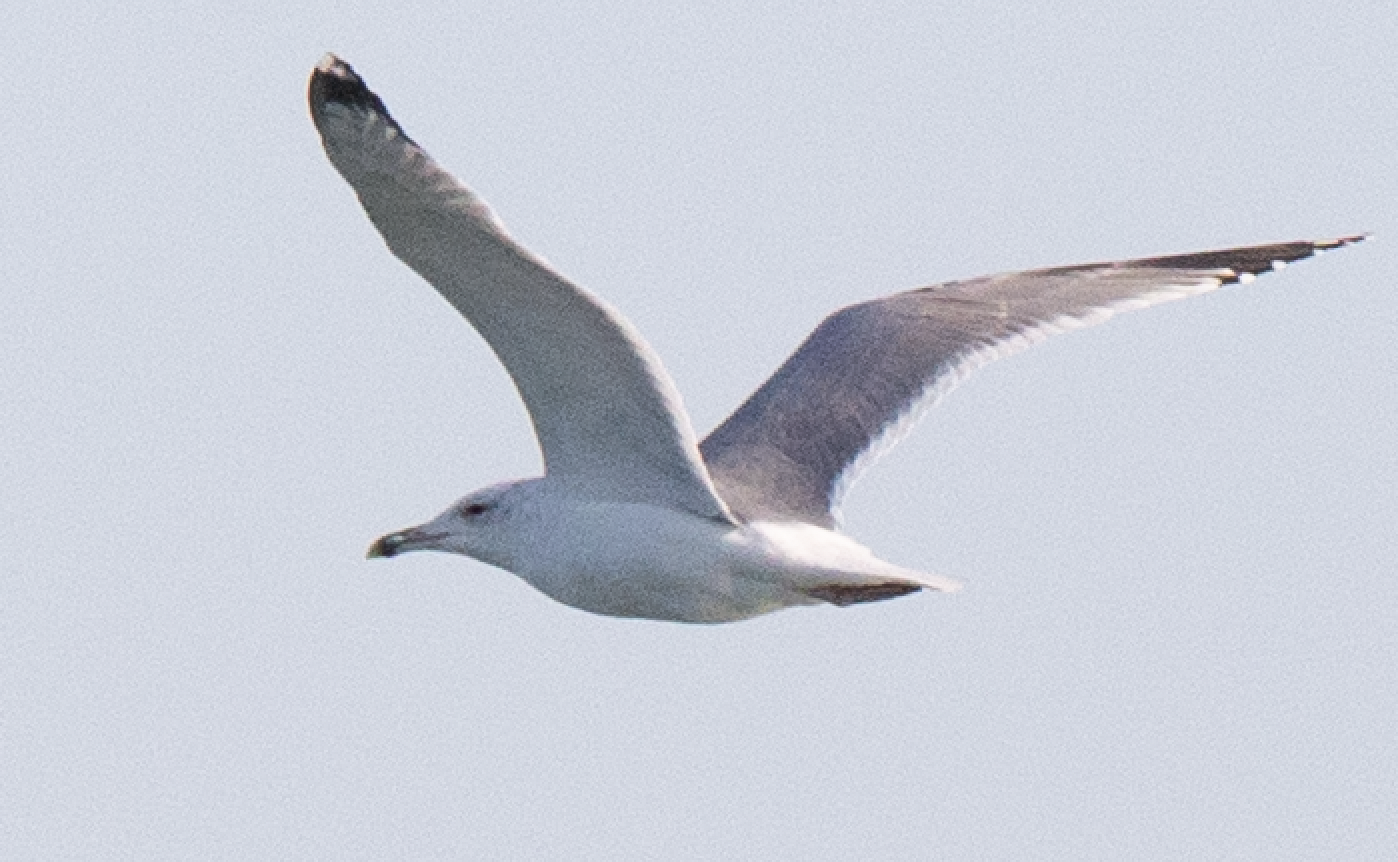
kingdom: Animalia
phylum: Chordata
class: Aves
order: Charadriiformes
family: Laridae
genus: Larus
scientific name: Larus cachinnans
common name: Caspian gull
